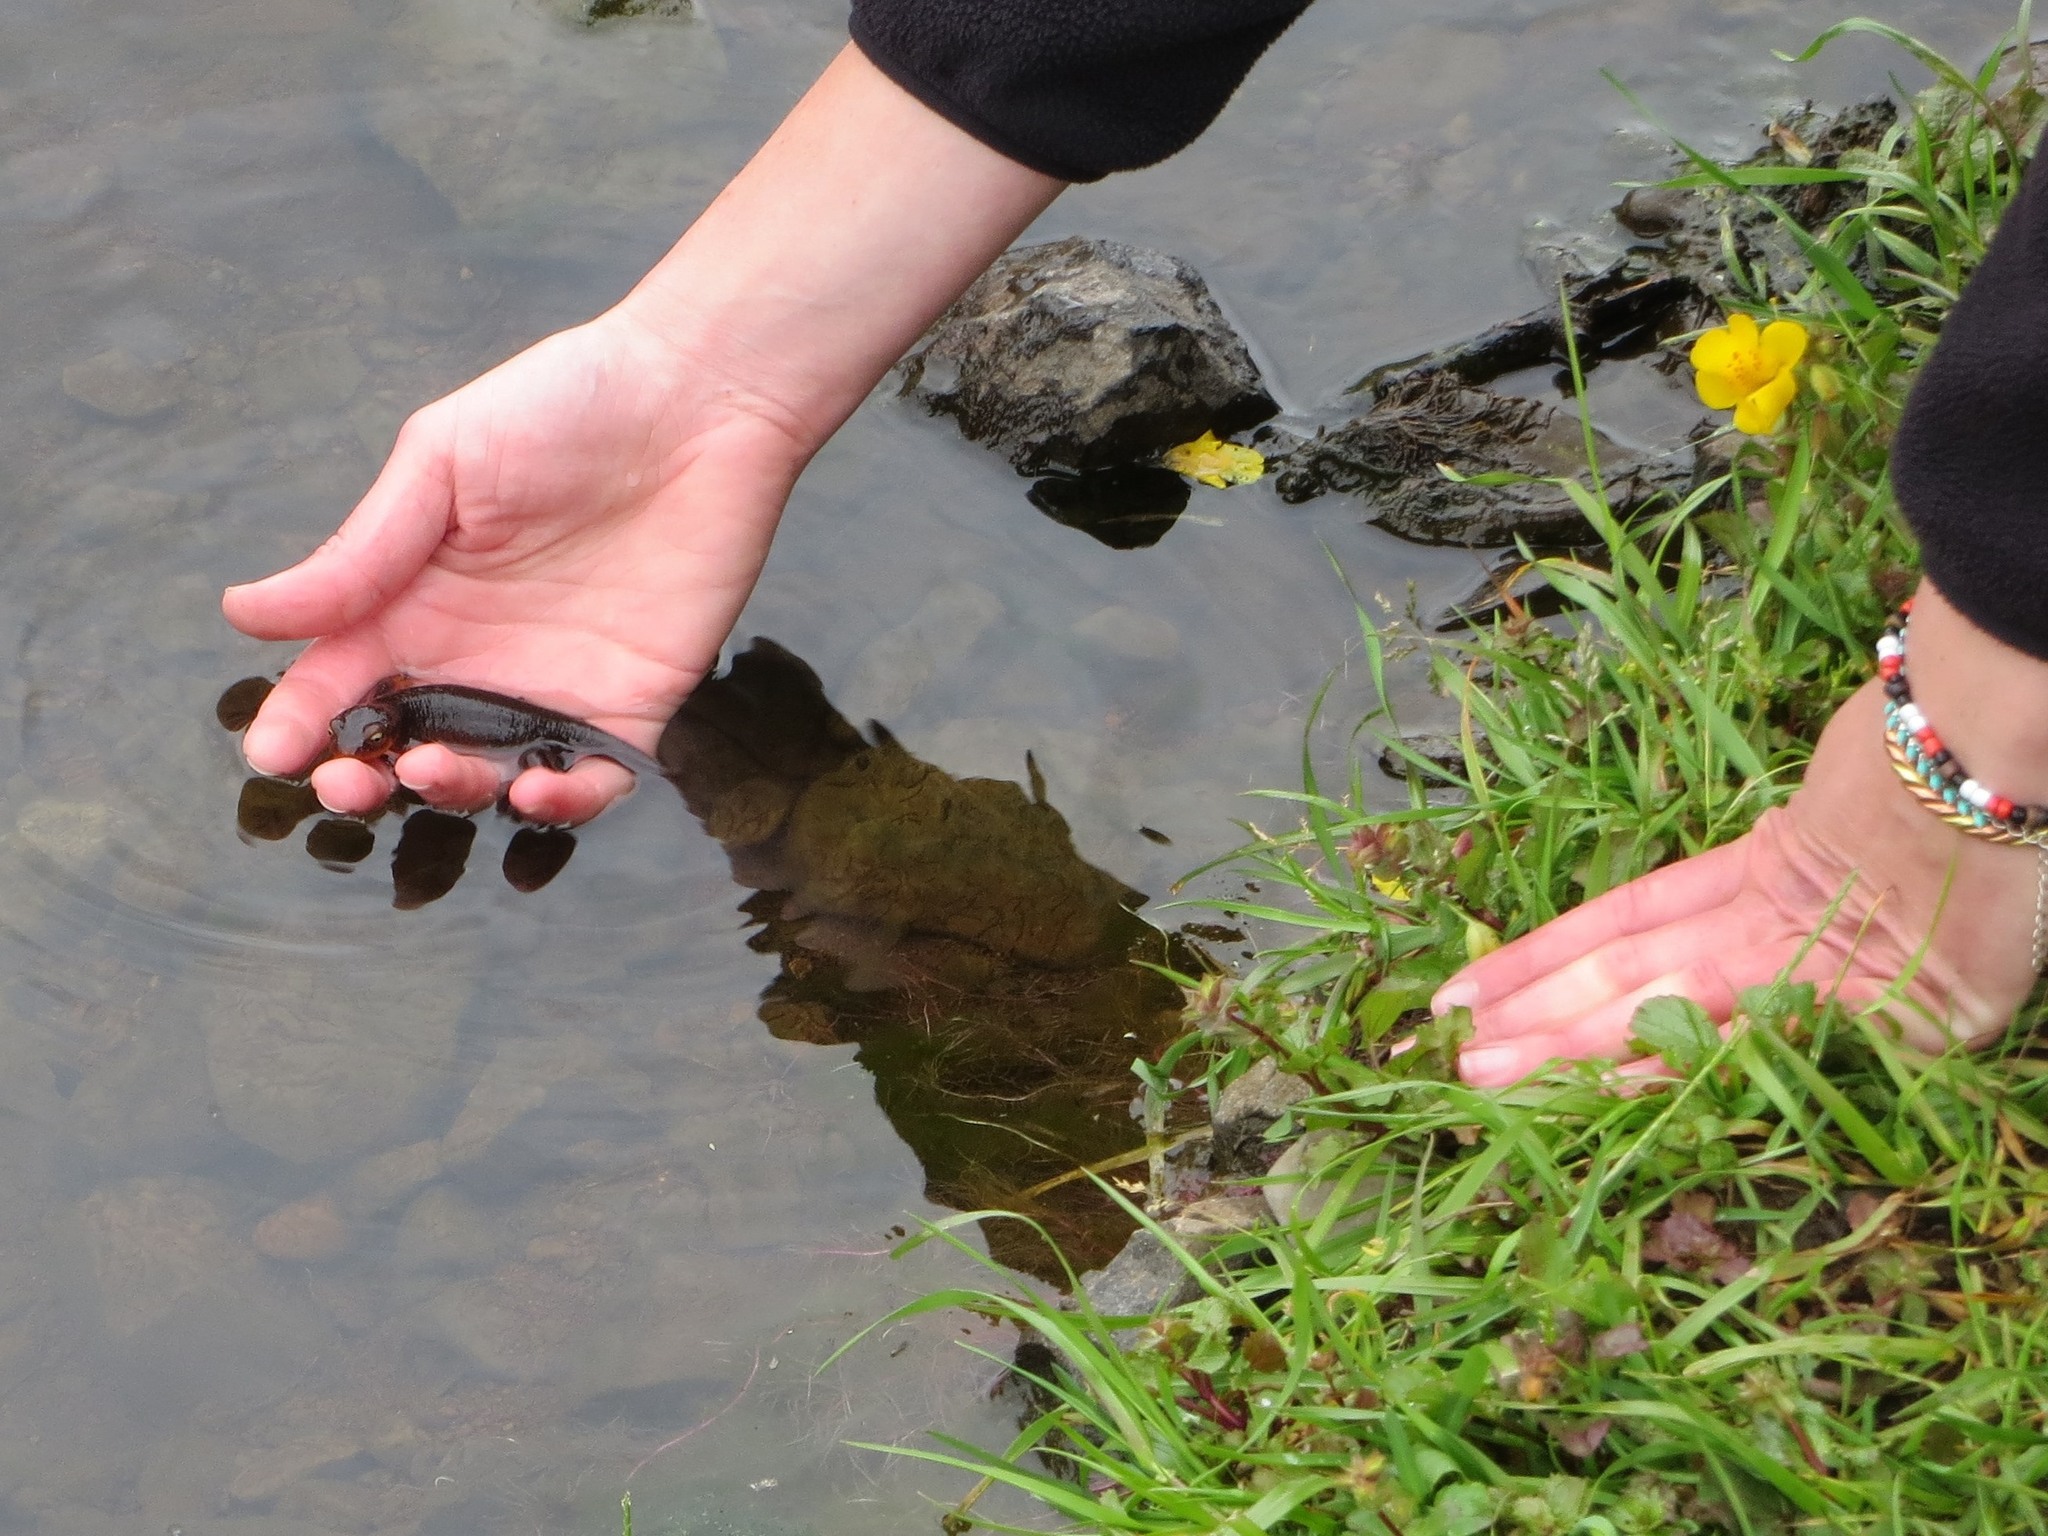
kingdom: Animalia
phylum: Chordata
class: Amphibia
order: Caudata
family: Salamandridae
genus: Taricha
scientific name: Taricha sierrae
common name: Sierra newt
